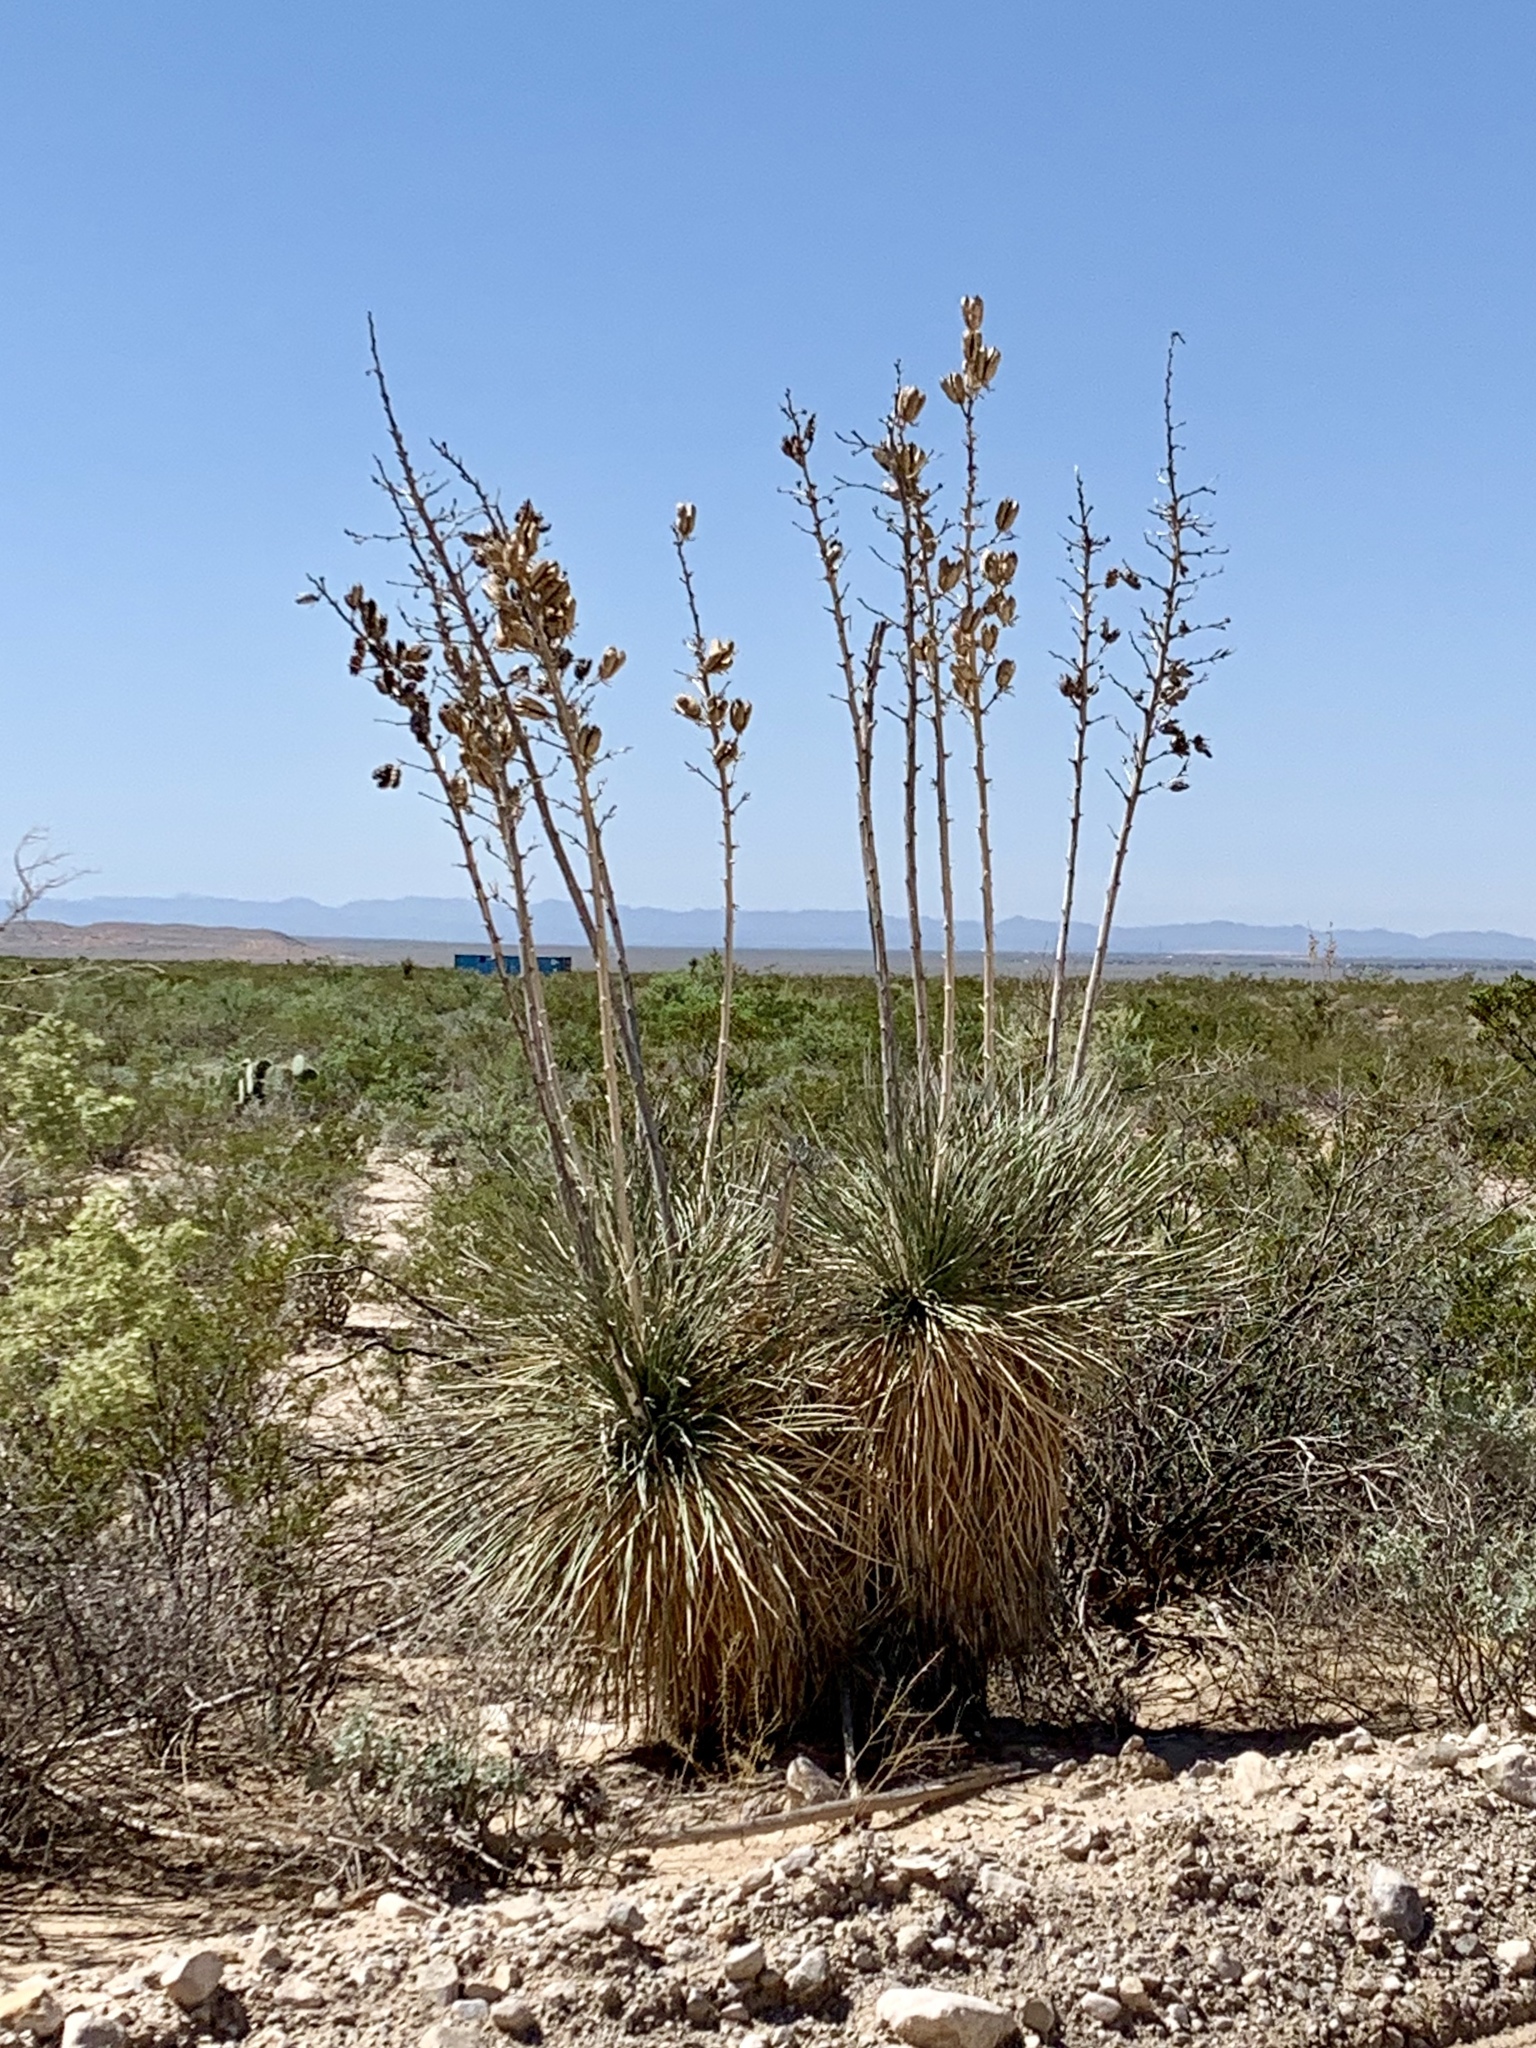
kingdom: Plantae
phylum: Tracheophyta
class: Liliopsida
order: Asparagales
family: Asparagaceae
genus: Yucca
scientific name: Yucca elata
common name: Palmella
